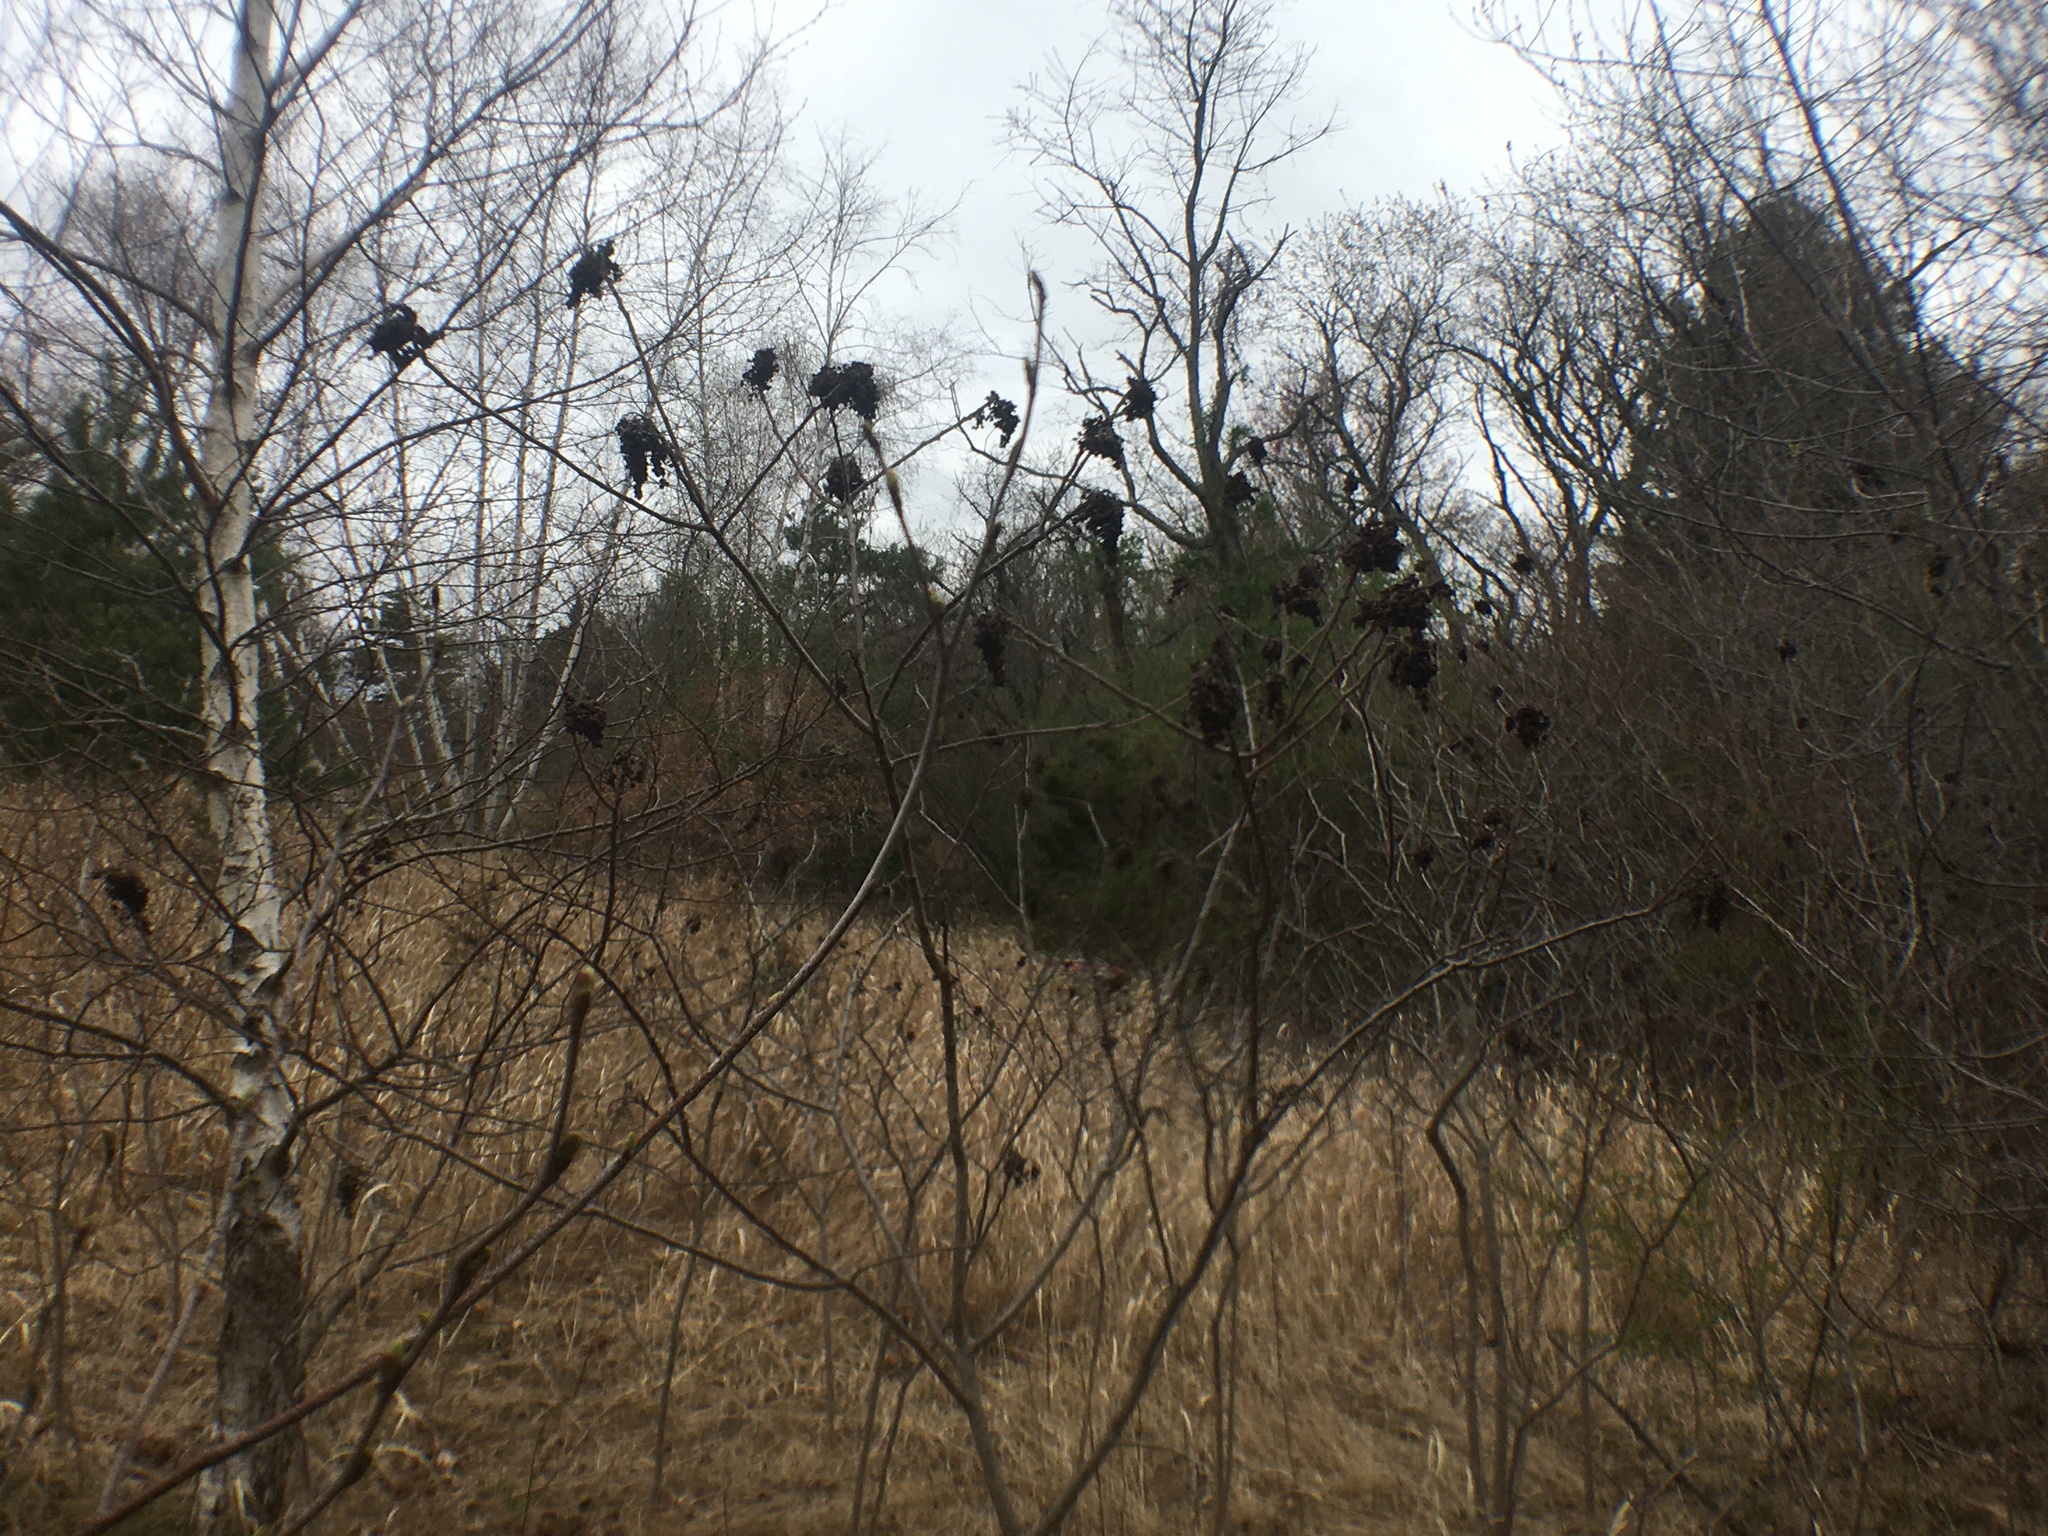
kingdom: Plantae
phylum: Tracheophyta
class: Magnoliopsida
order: Sapindales
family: Anacardiaceae
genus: Rhus
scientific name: Rhus copallina
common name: Shining sumac
